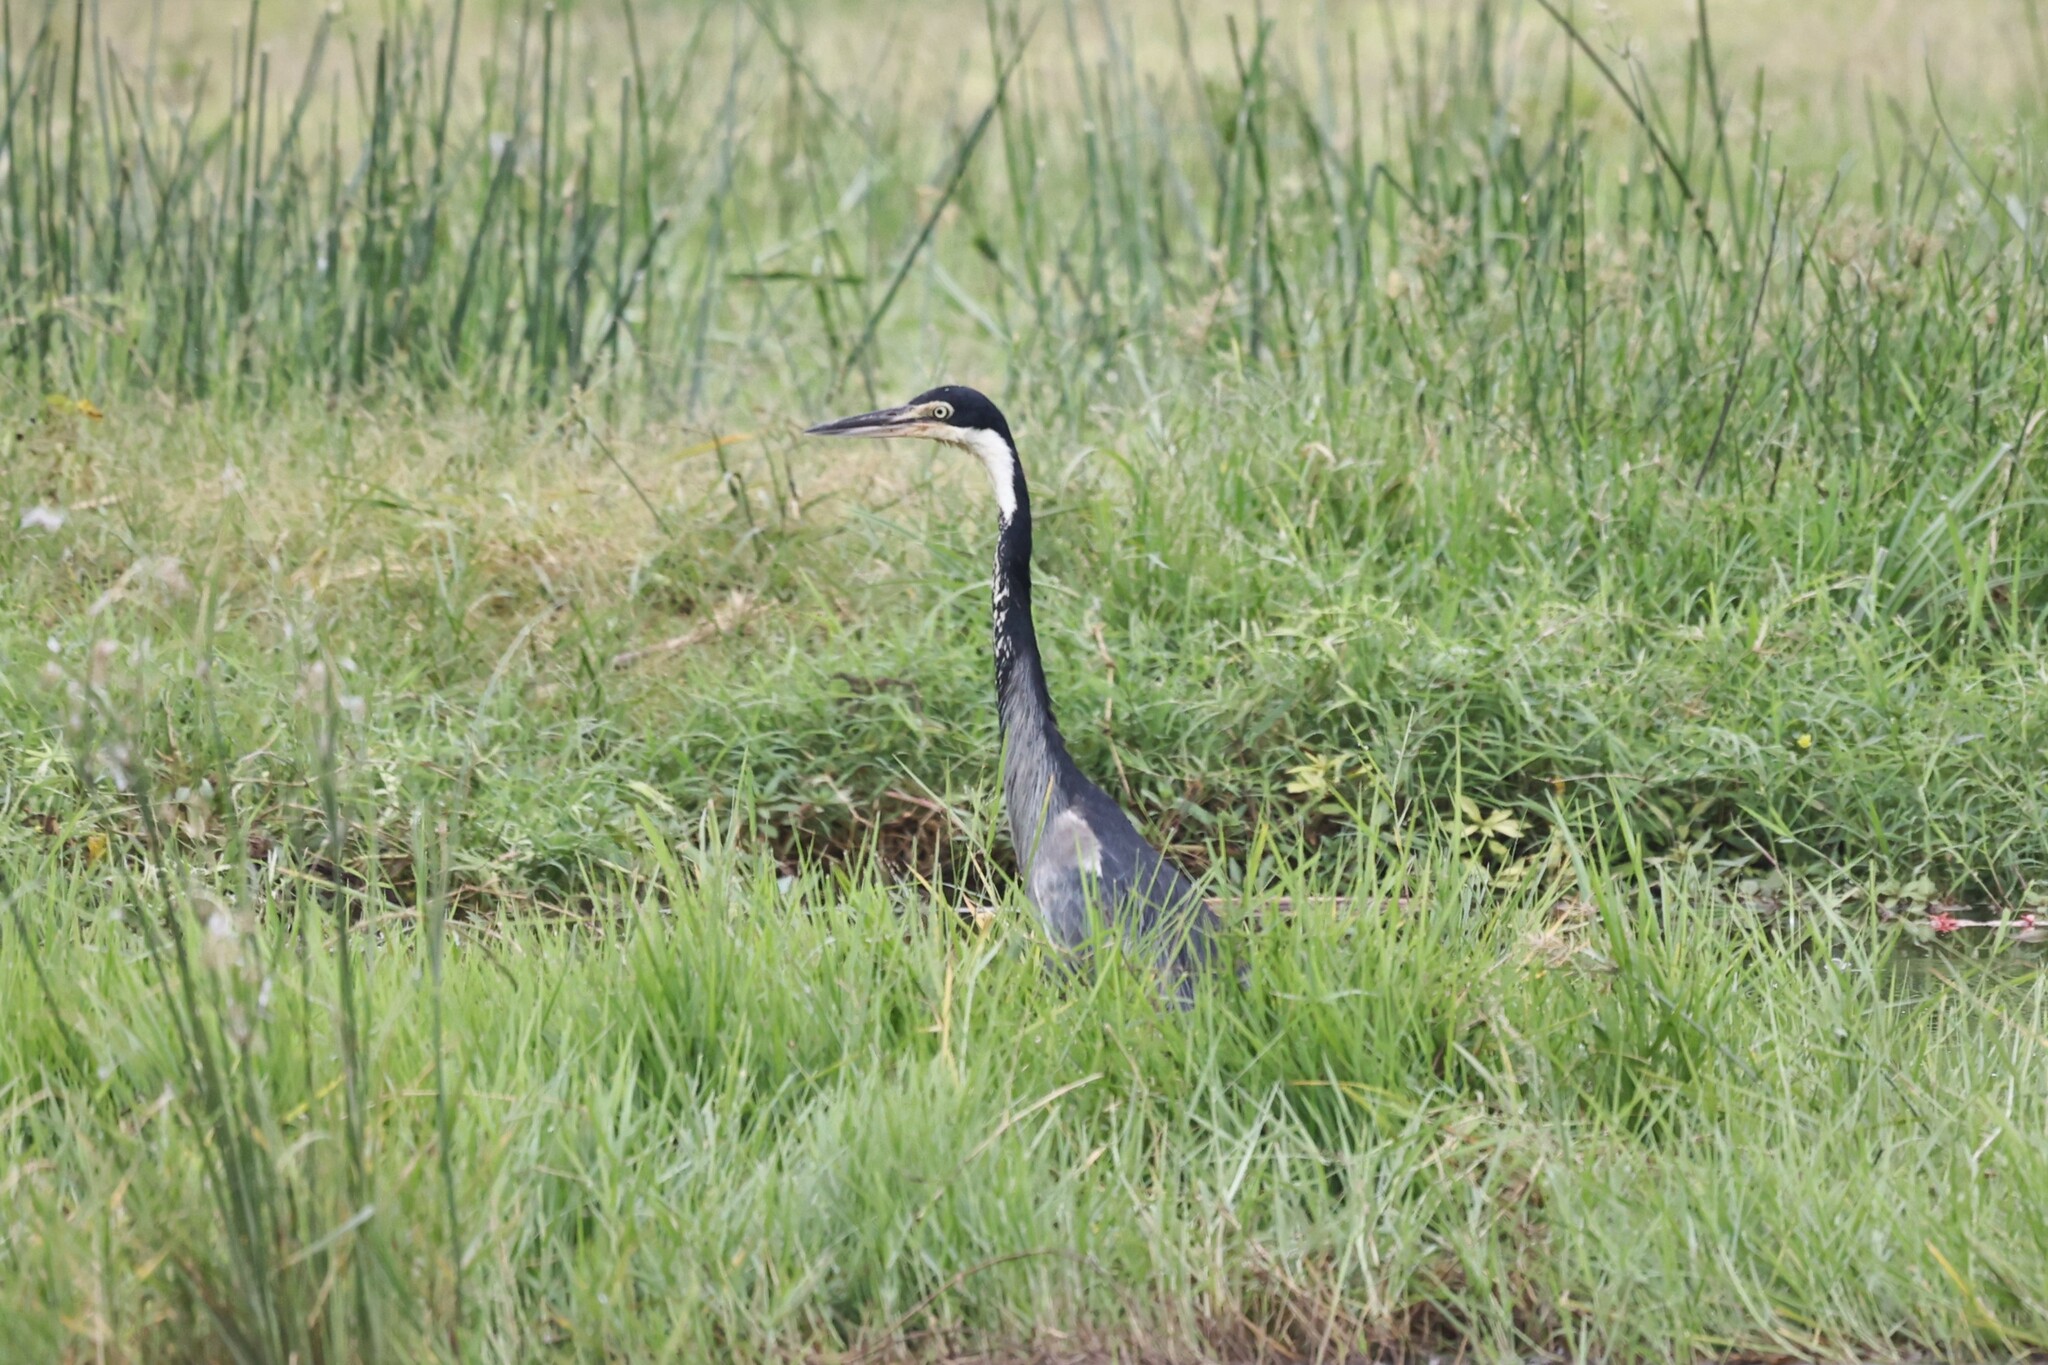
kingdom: Animalia
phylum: Chordata
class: Aves
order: Pelecaniformes
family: Ardeidae
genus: Ardea
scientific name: Ardea melanocephala
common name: Black-headed heron
